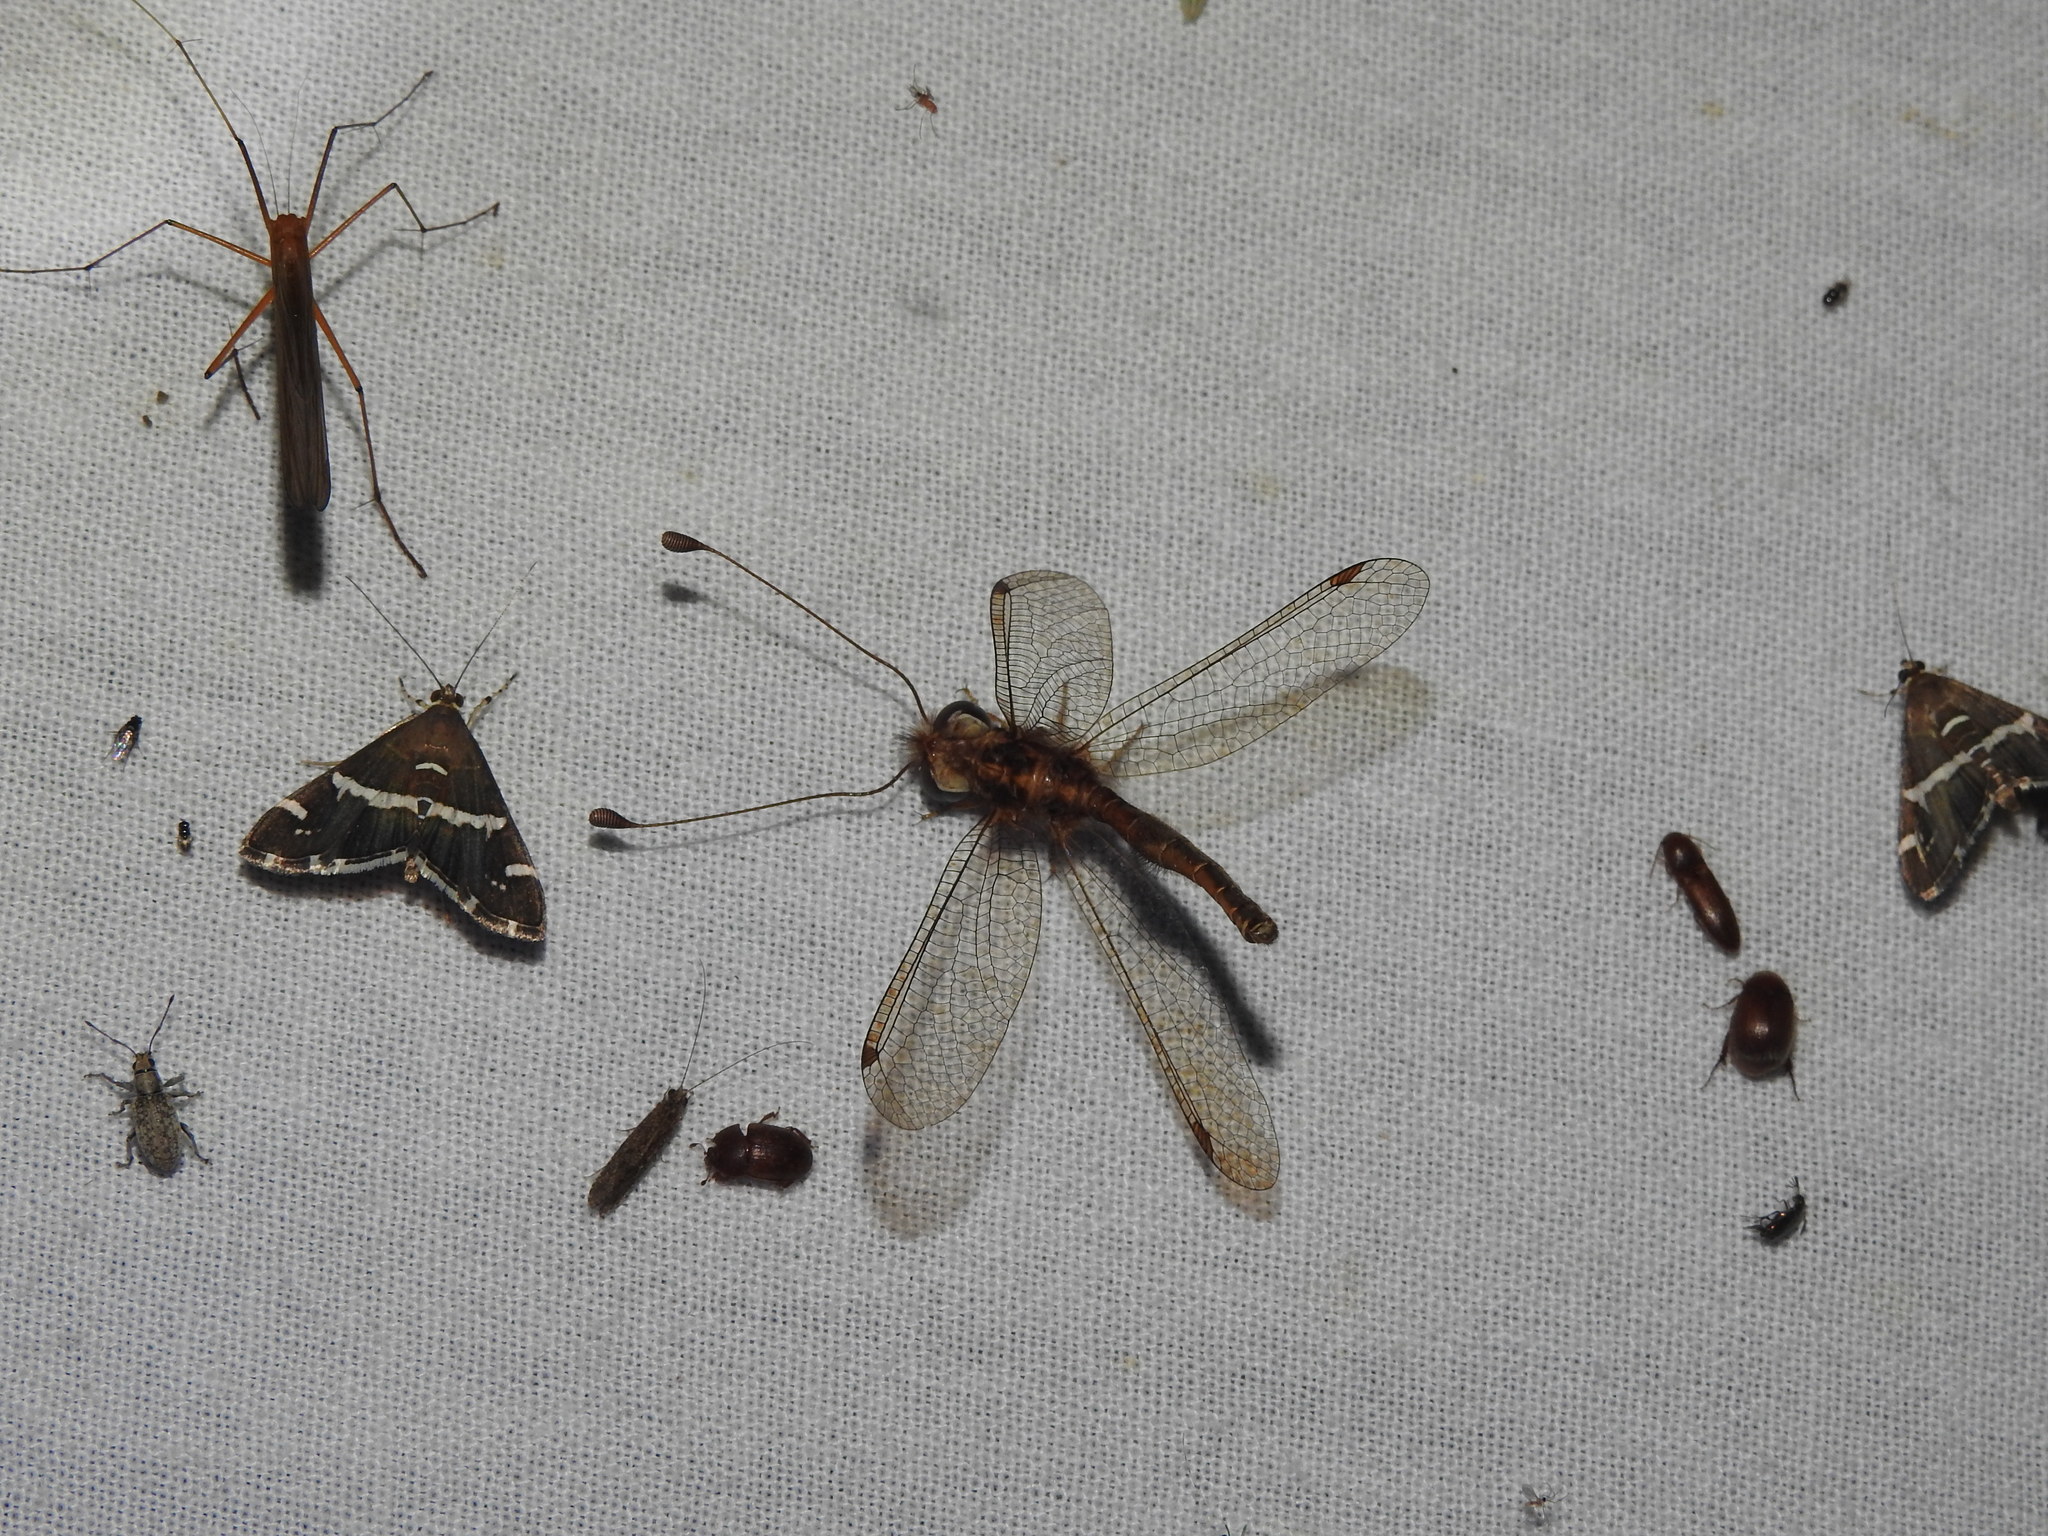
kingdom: Animalia
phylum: Arthropoda
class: Insecta
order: Lepidoptera
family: Crambidae
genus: Spoladea
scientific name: Spoladea recurvalis
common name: Beet webworm moth
